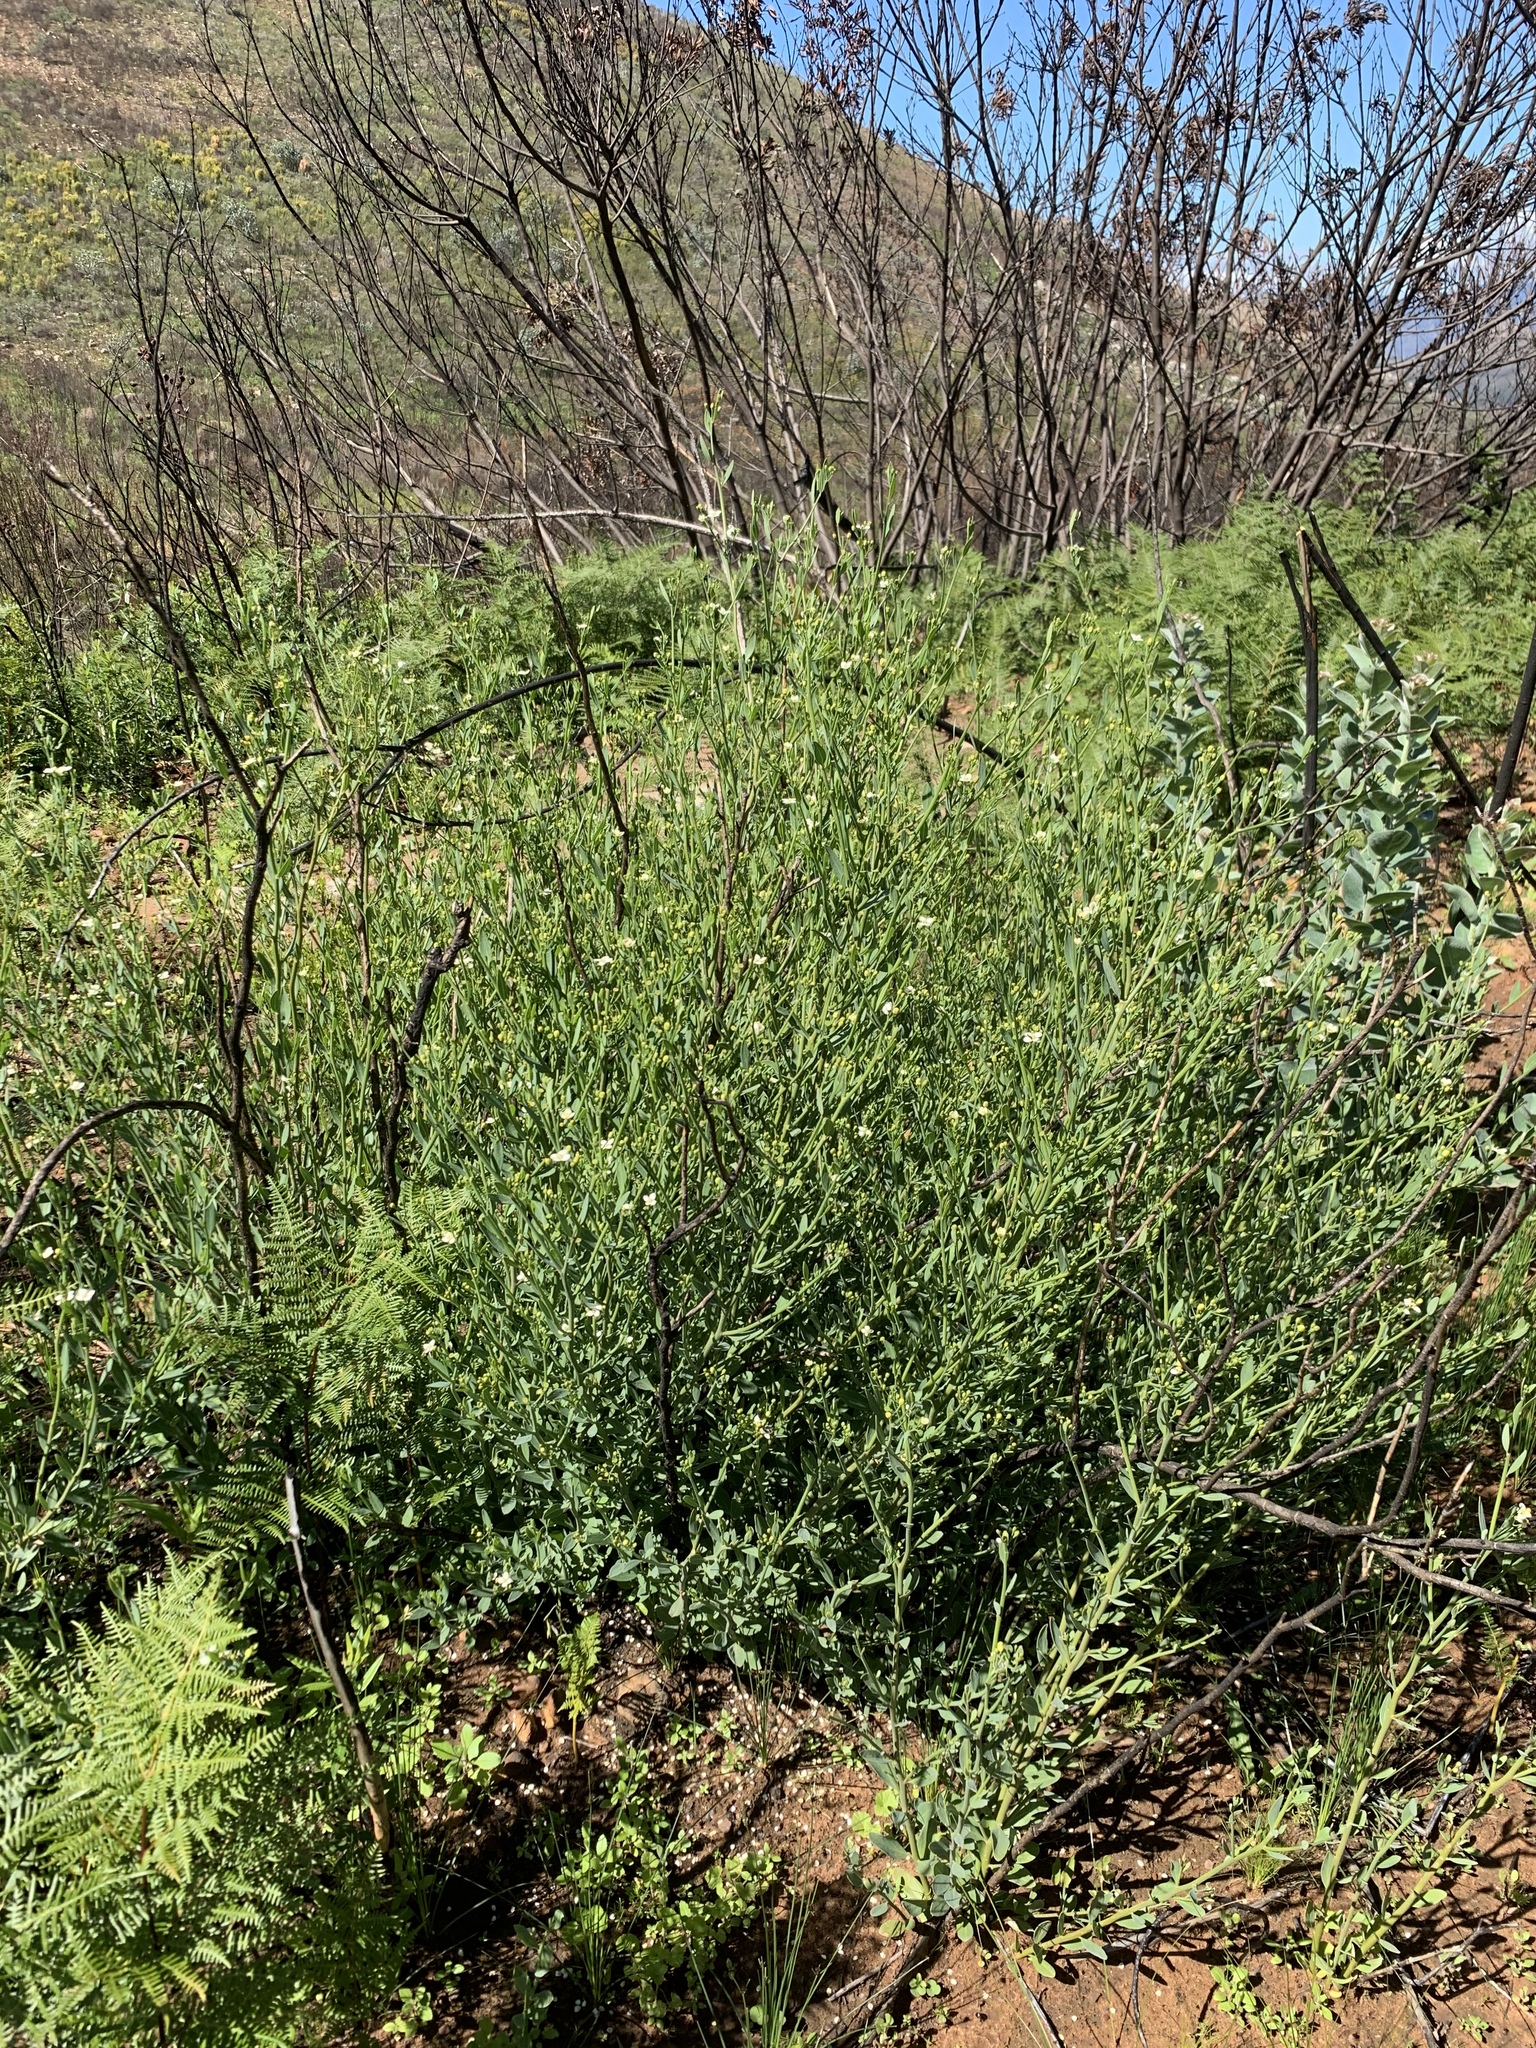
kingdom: Plantae
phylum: Tracheophyta
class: Magnoliopsida
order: Solanales
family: Montiniaceae
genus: Montinia
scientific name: Montinia caryophyllacea
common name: Wild clove-bush
